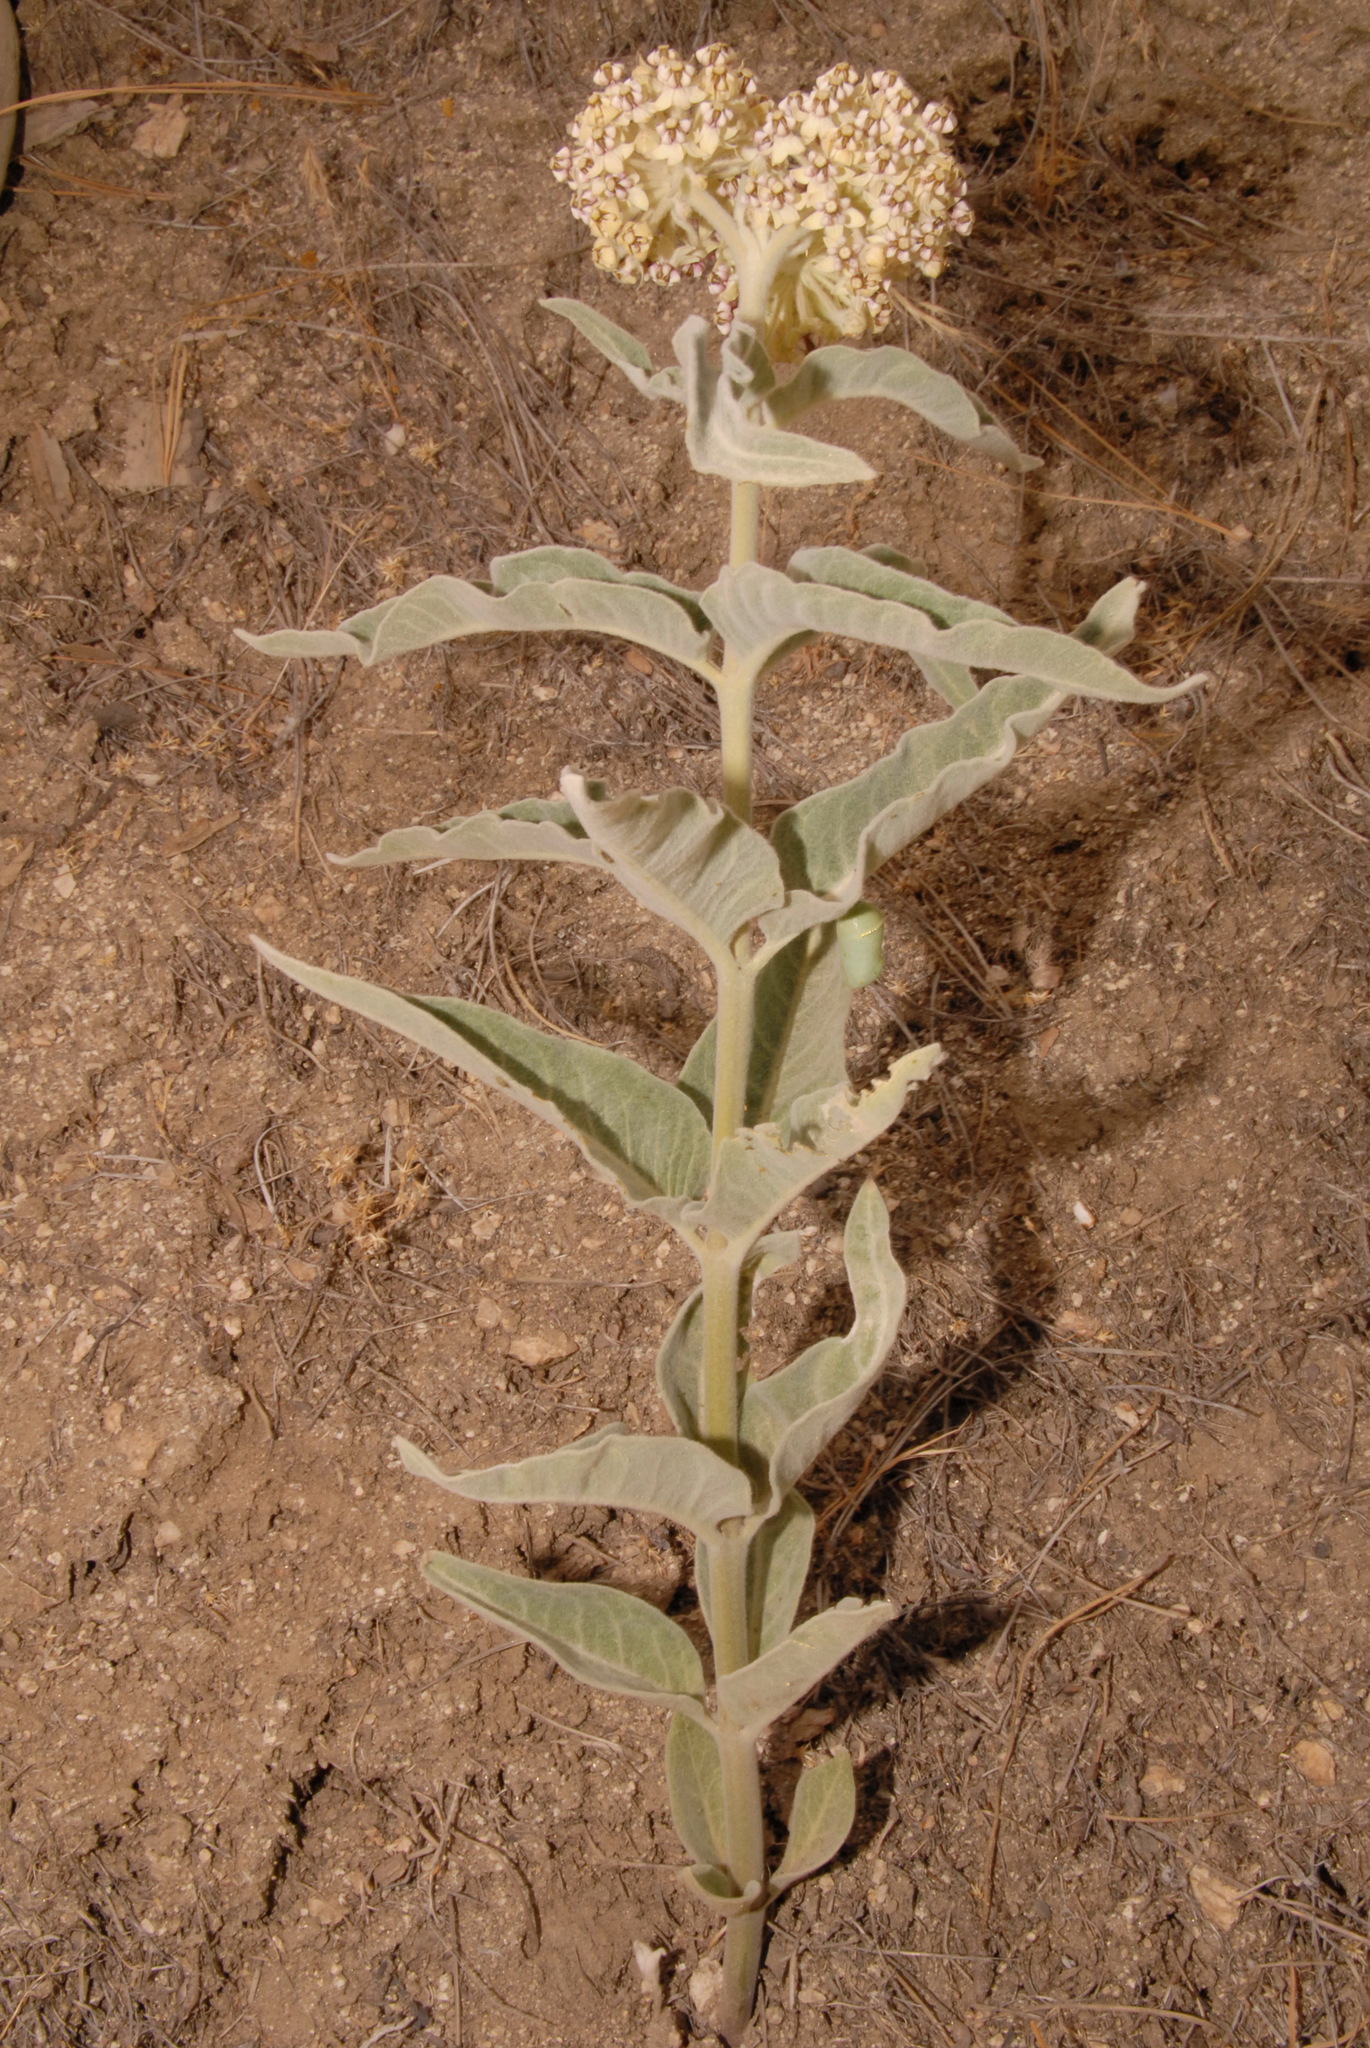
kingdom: Plantae
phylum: Tracheophyta
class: Magnoliopsida
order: Gentianales
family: Apocynaceae
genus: Asclepias
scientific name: Asclepias eriocarpa
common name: Indian milkweed
